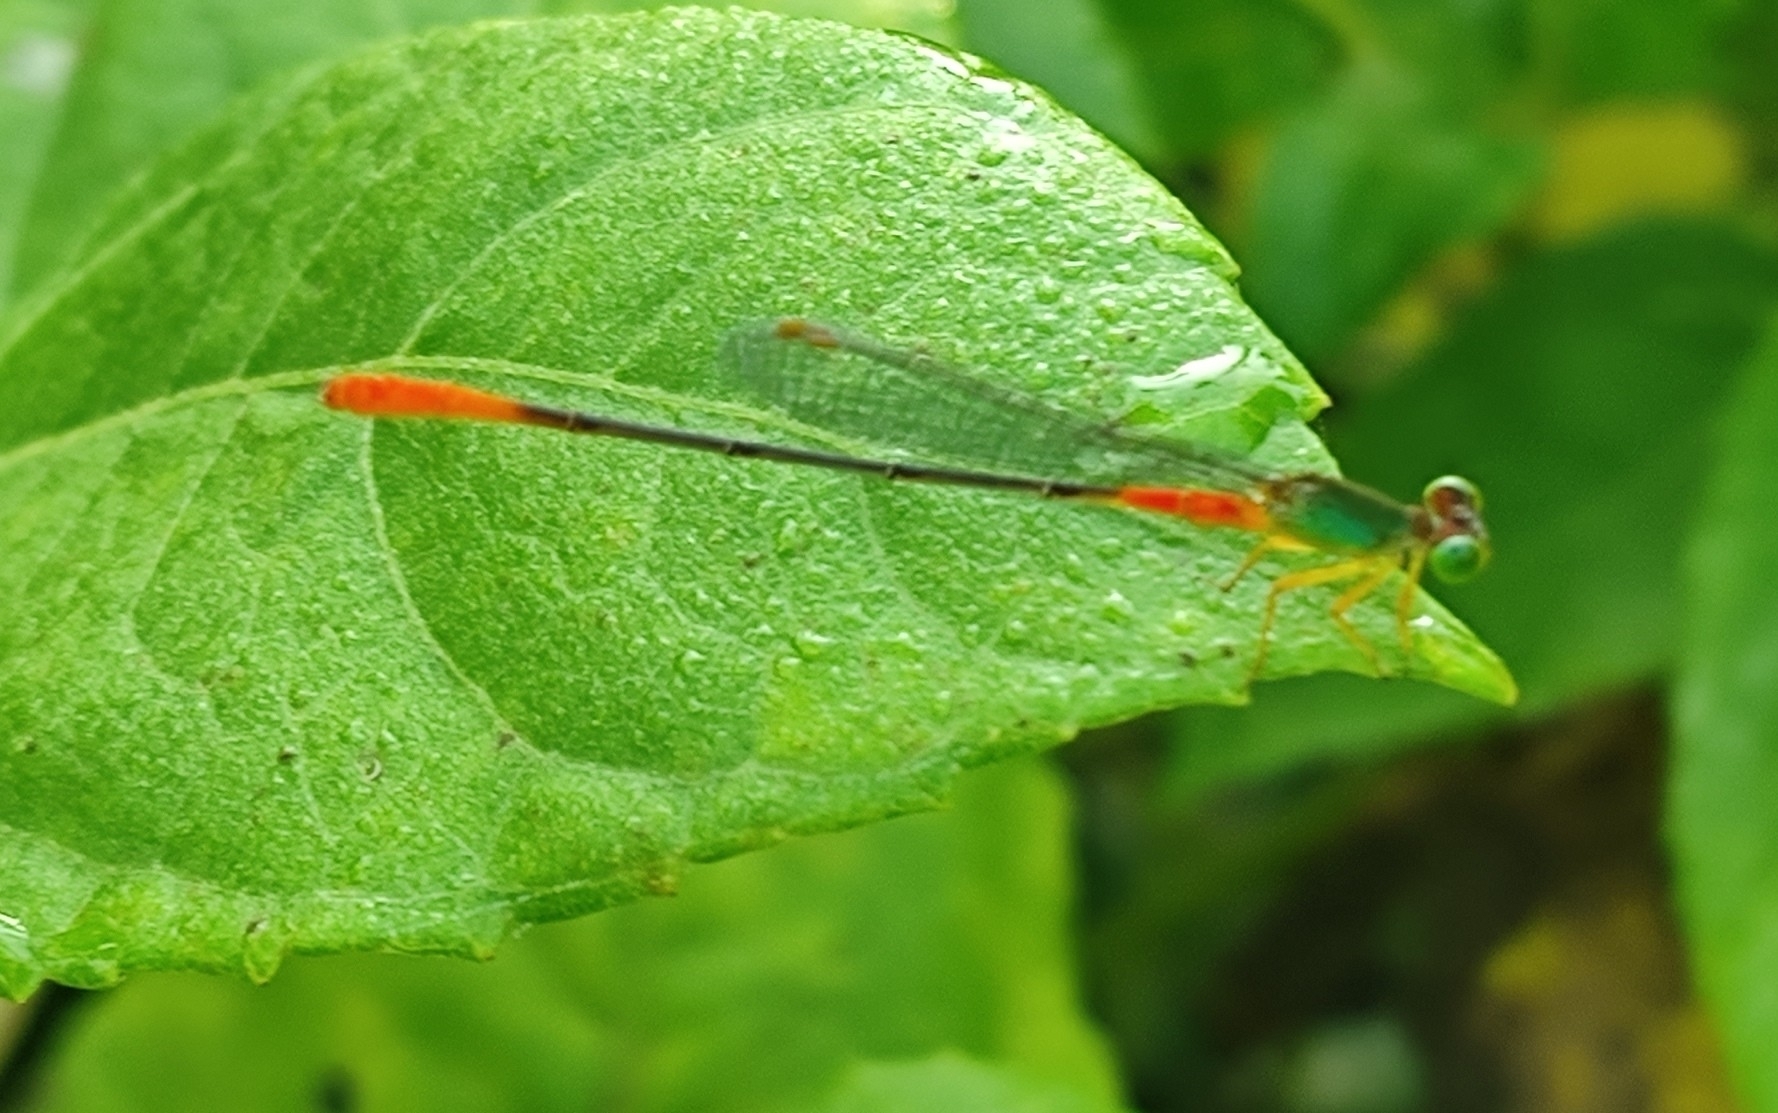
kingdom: Animalia
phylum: Arthropoda
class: Insecta
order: Odonata
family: Coenagrionidae
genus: Ceriagrion
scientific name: Ceriagrion cerinorubellum
